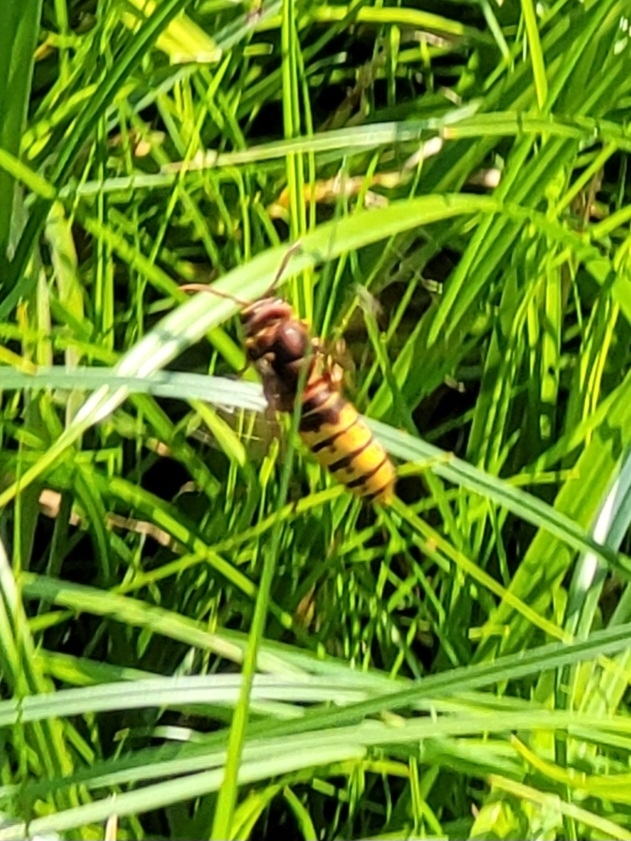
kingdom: Animalia
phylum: Arthropoda
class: Insecta
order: Hymenoptera
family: Vespidae
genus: Vespa
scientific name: Vespa crabro
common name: Hornet
